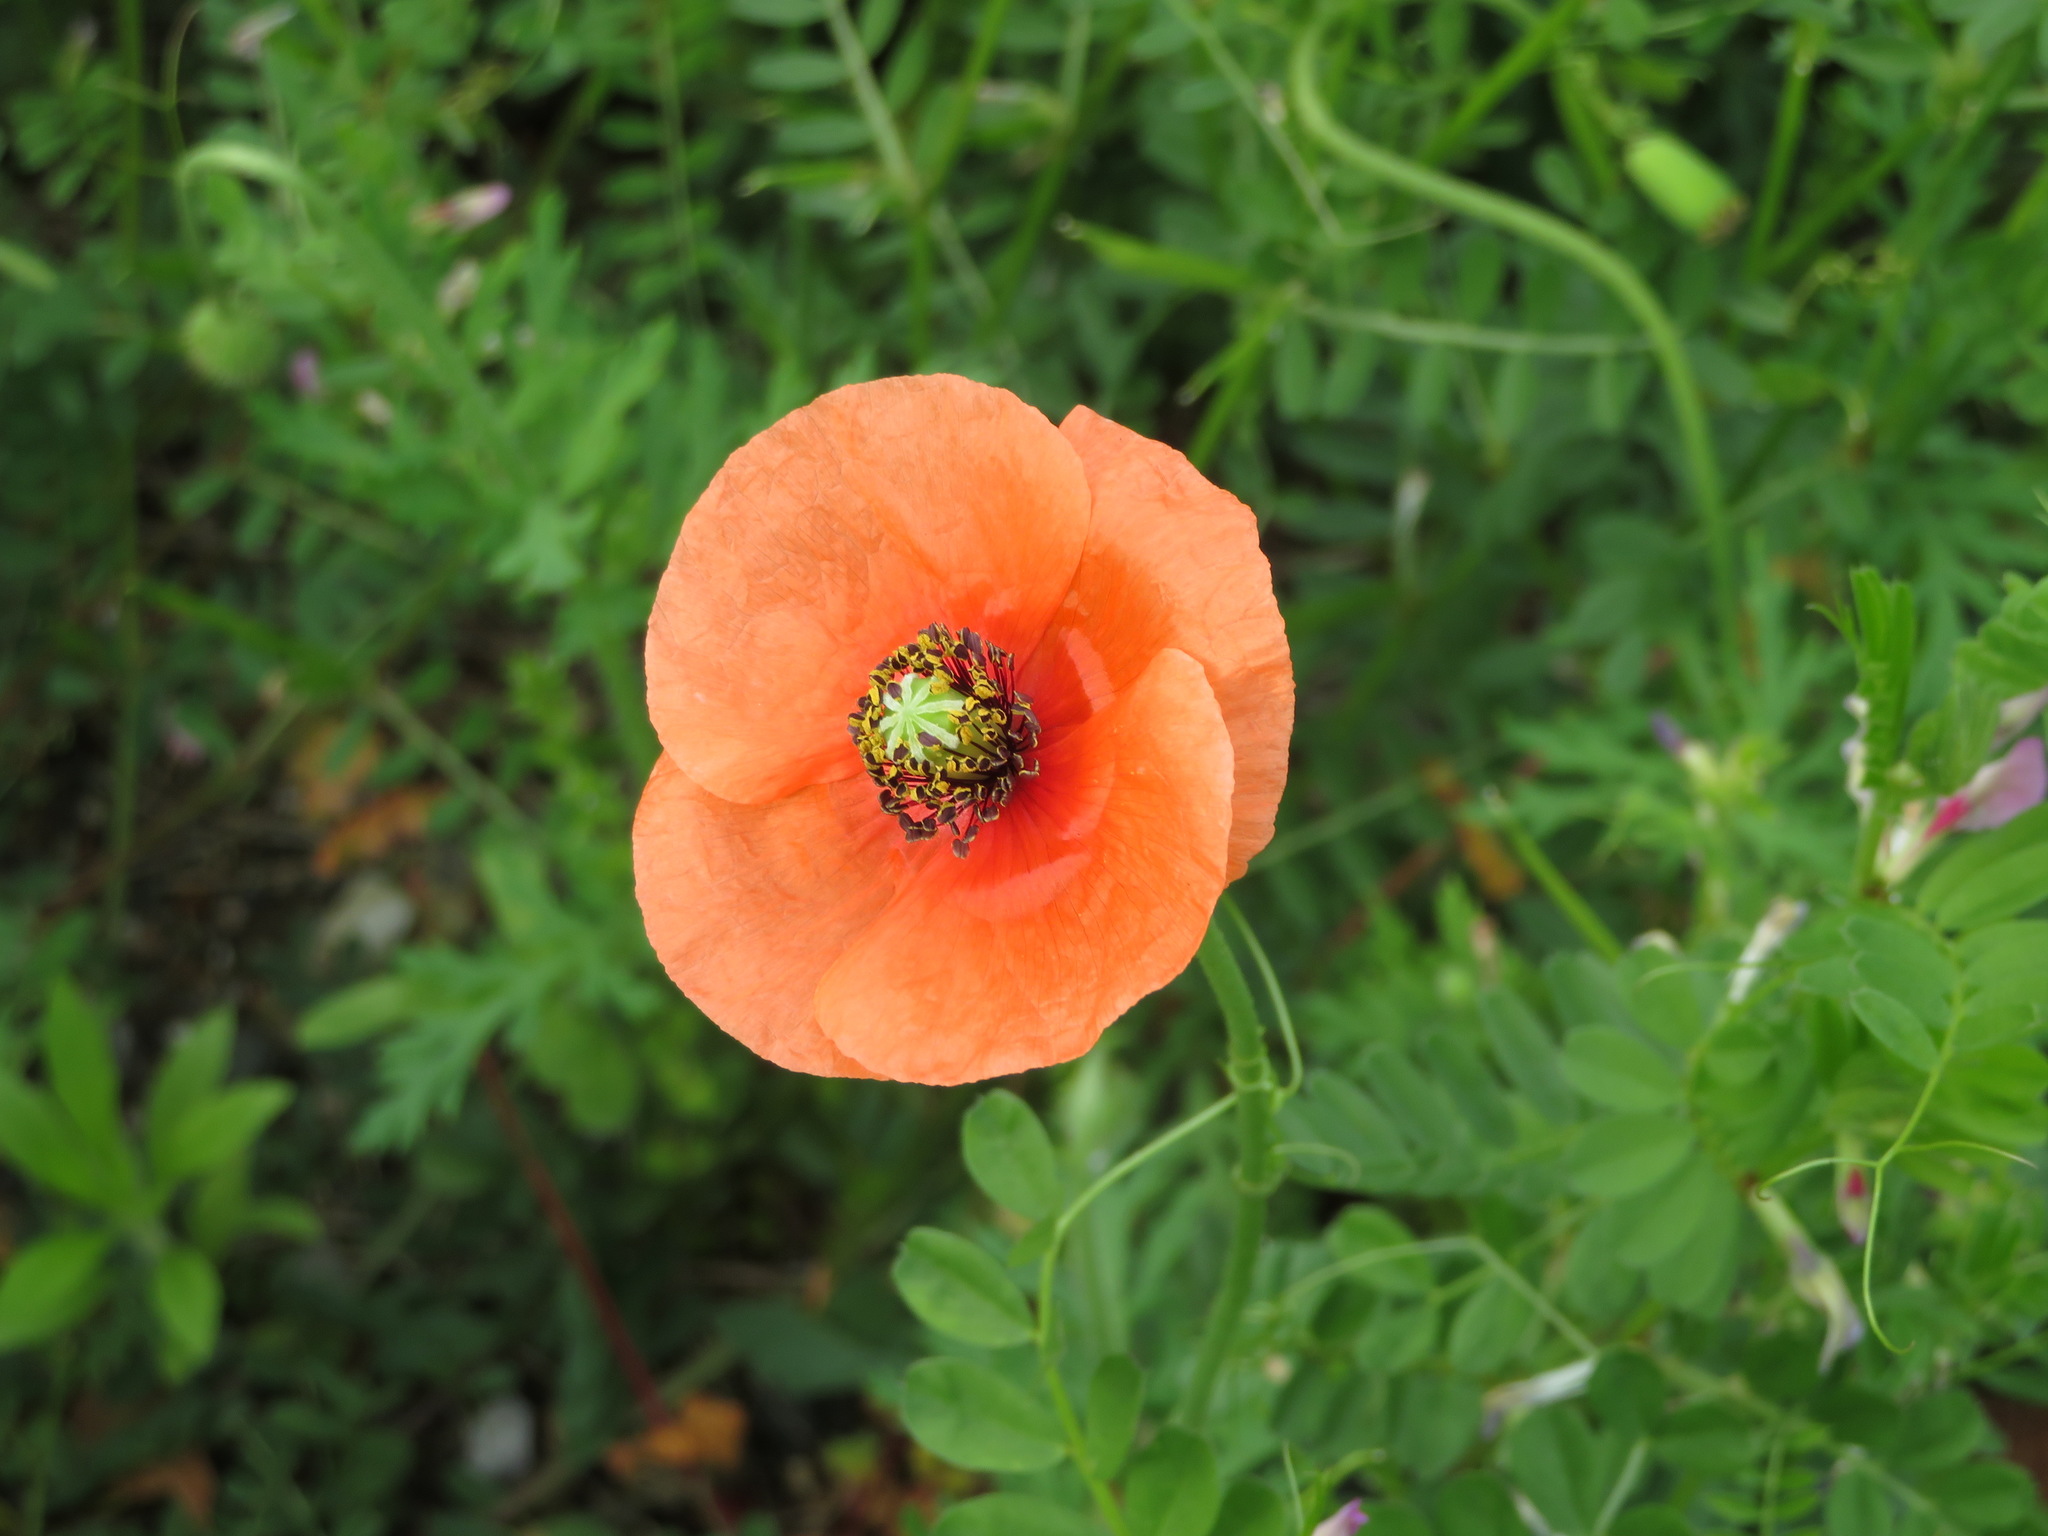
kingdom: Plantae
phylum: Tracheophyta
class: Magnoliopsida
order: Ranunculales
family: Papaveraceae
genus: Papaver
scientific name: Papaver dubium
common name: Long-headed poppy
